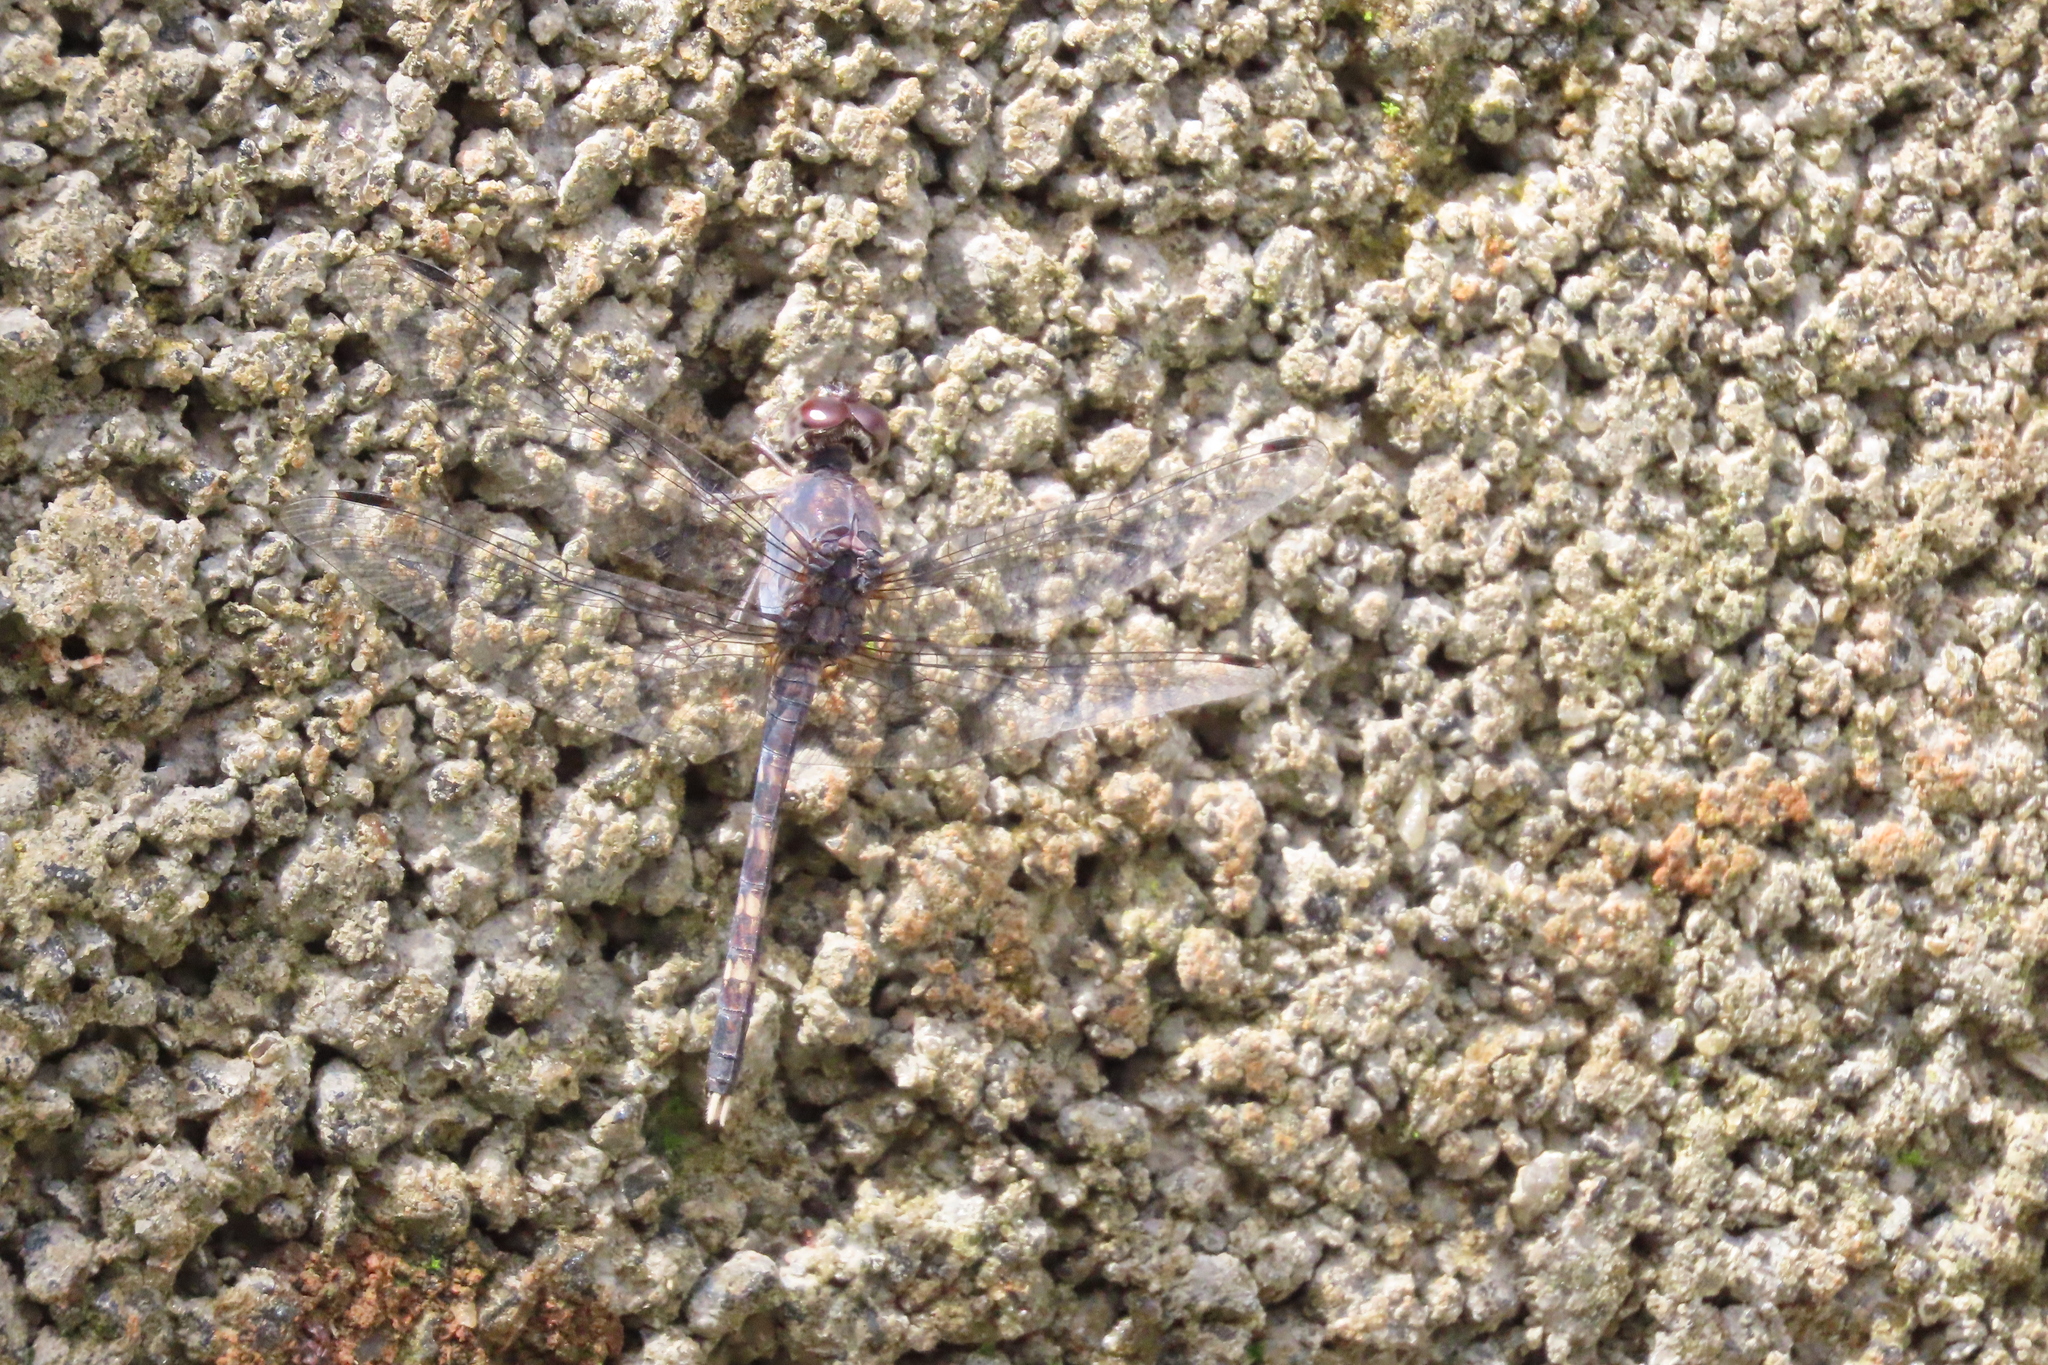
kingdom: Animalia
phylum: Arthropoda
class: Insecta
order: Odonata
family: Libellulidae
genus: Bradinopyga
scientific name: Bradinopyga geminata
